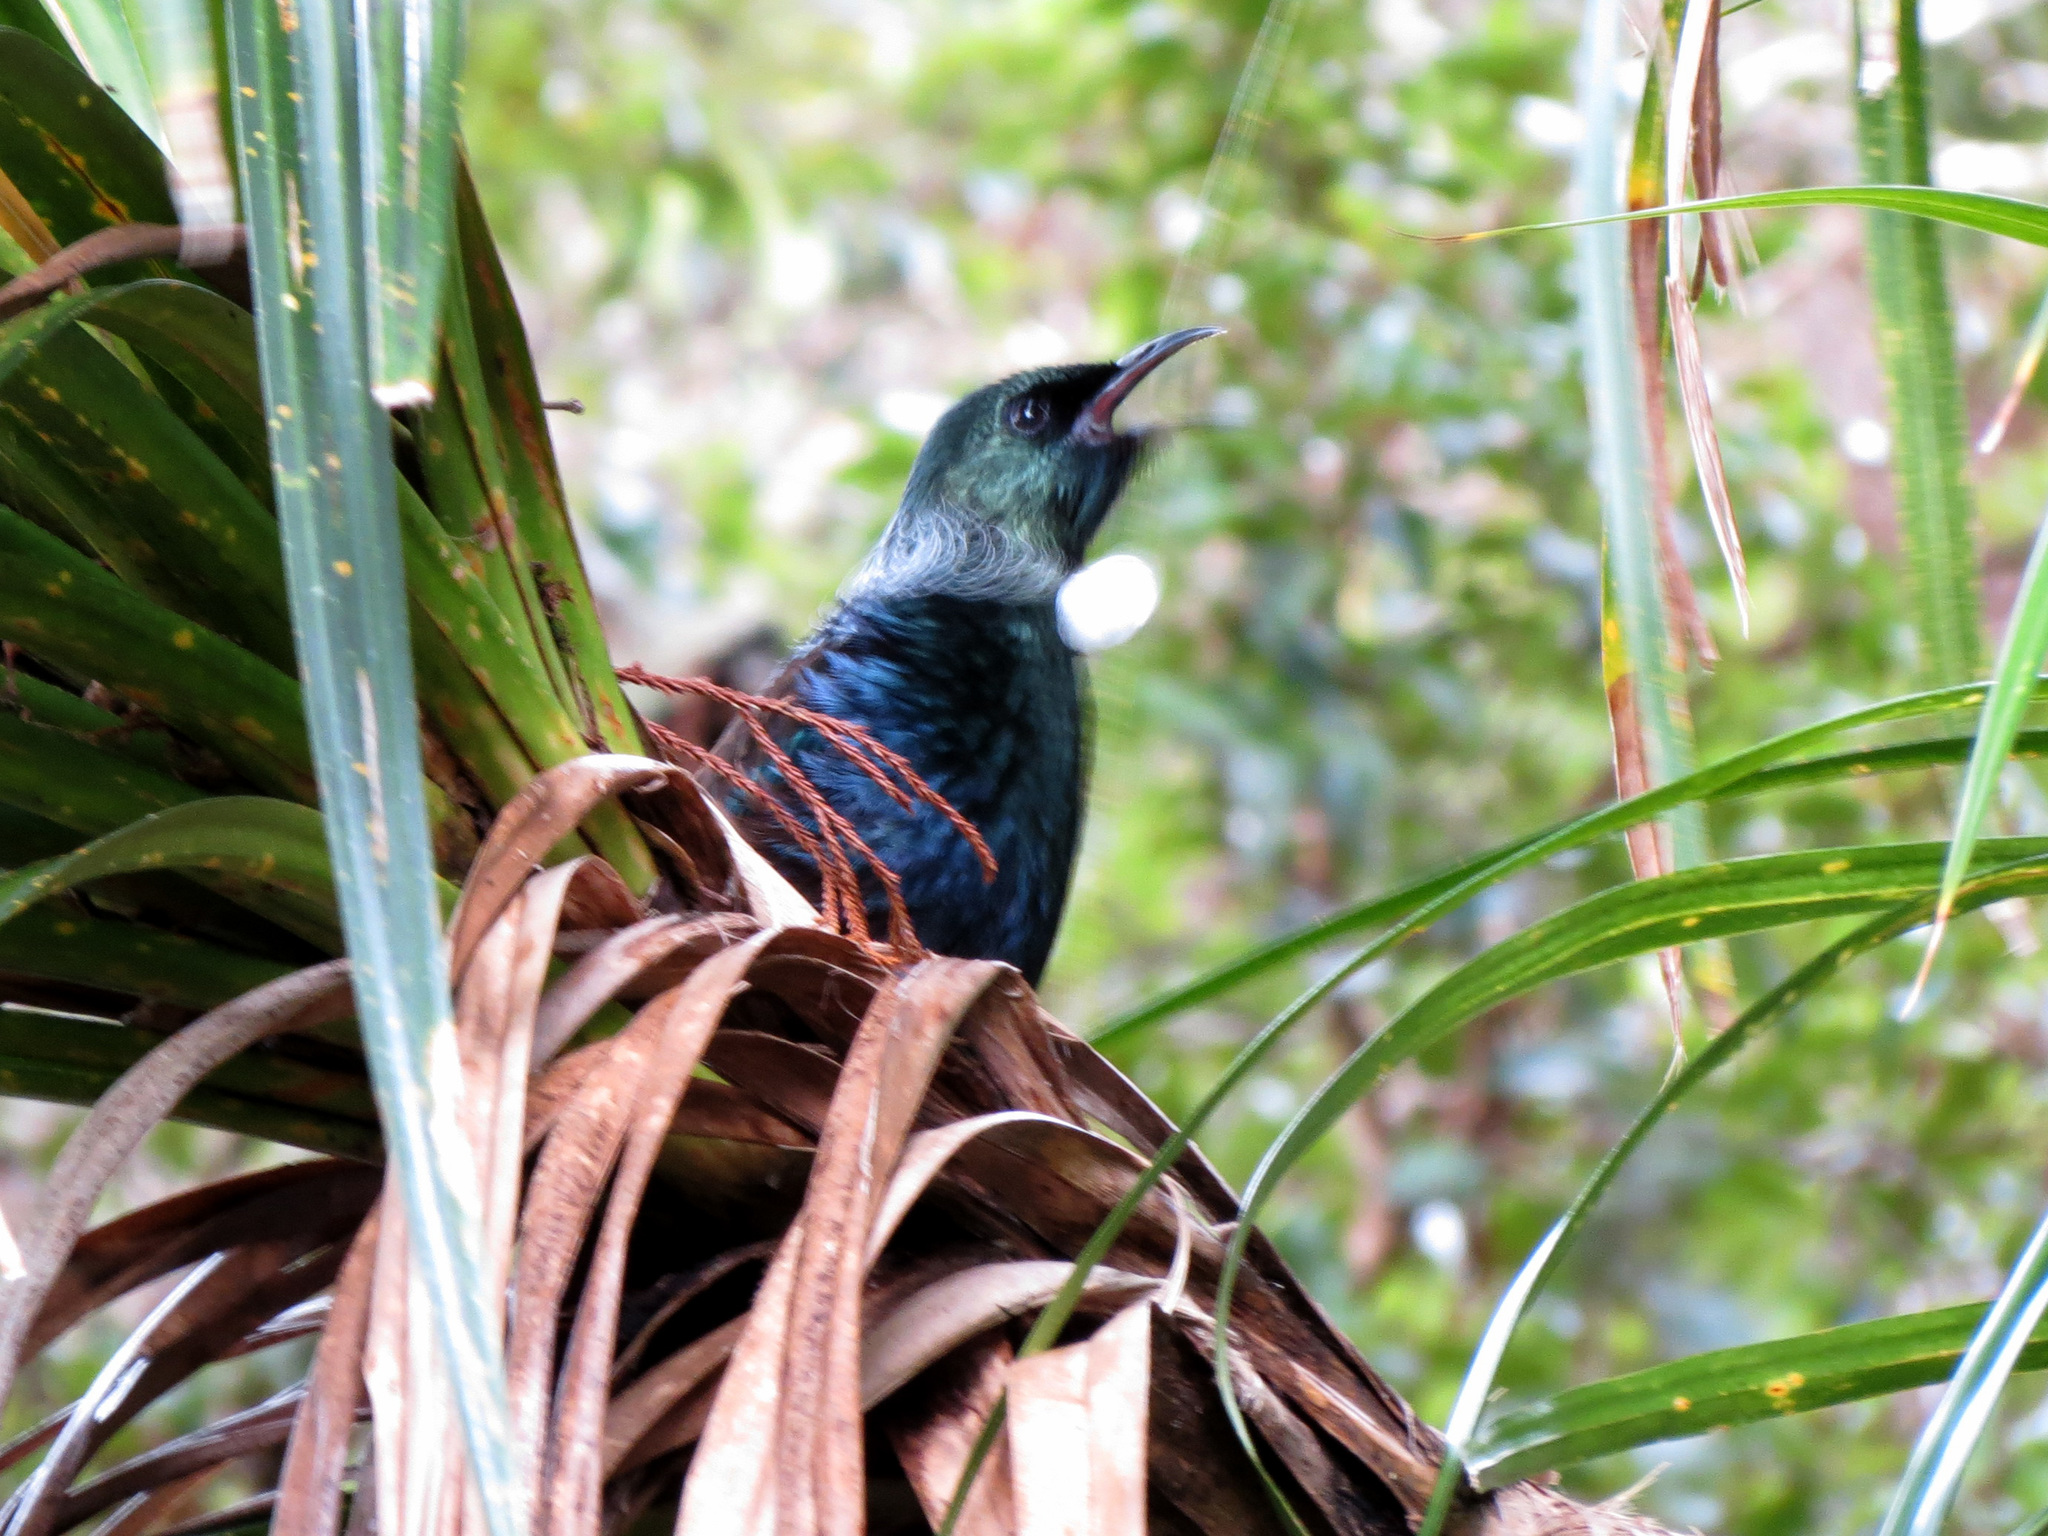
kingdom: Animalia
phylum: Chordata
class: Aves
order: Passeriformes
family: Meliphagidae
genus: Prosthemadera
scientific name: Prosthemadera novaeseelandiae
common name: Tui
